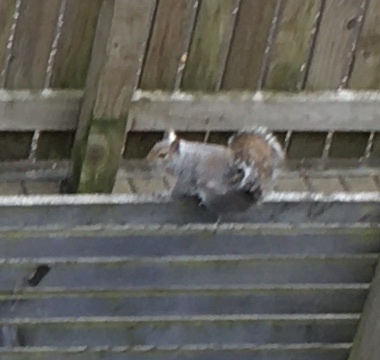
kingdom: Animalia
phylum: Chordata
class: Mammalia
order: Rodentia
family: Sciuridae
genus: Sciurus
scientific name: Sciurus carolinensis
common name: Eastern gray squirrel
